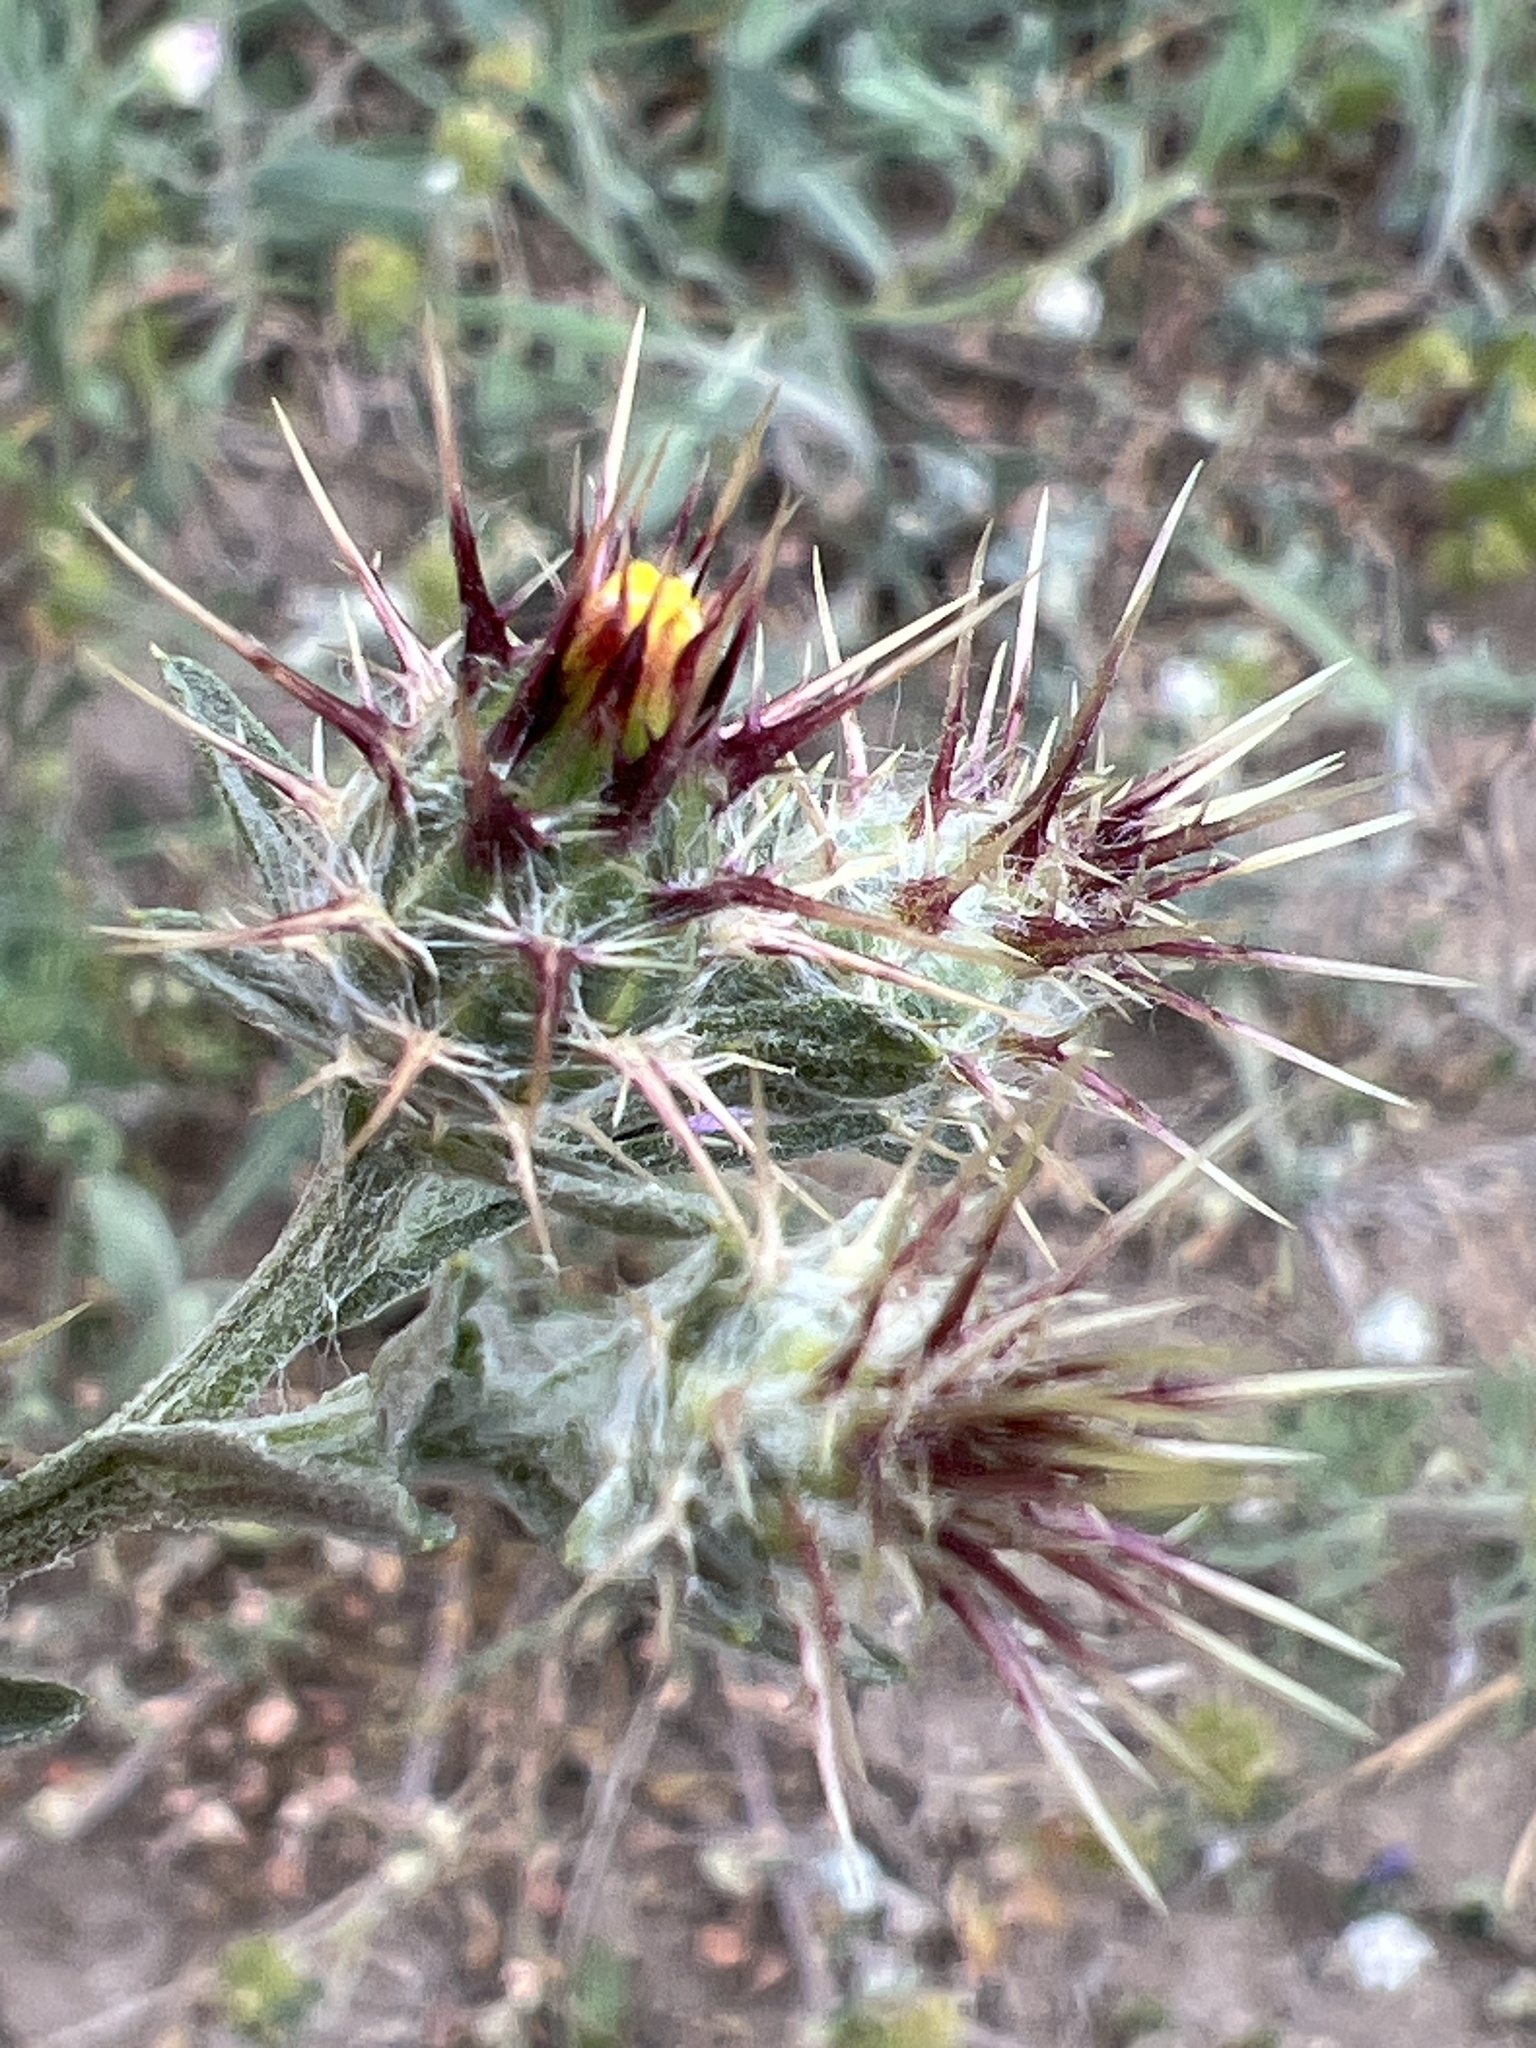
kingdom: Plantae
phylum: Tracheophyta
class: Magnoliopsida
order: Asterales
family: Asteraceae
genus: Centaurea
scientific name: Centaurea melitensis
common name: Maltese star-thistle
